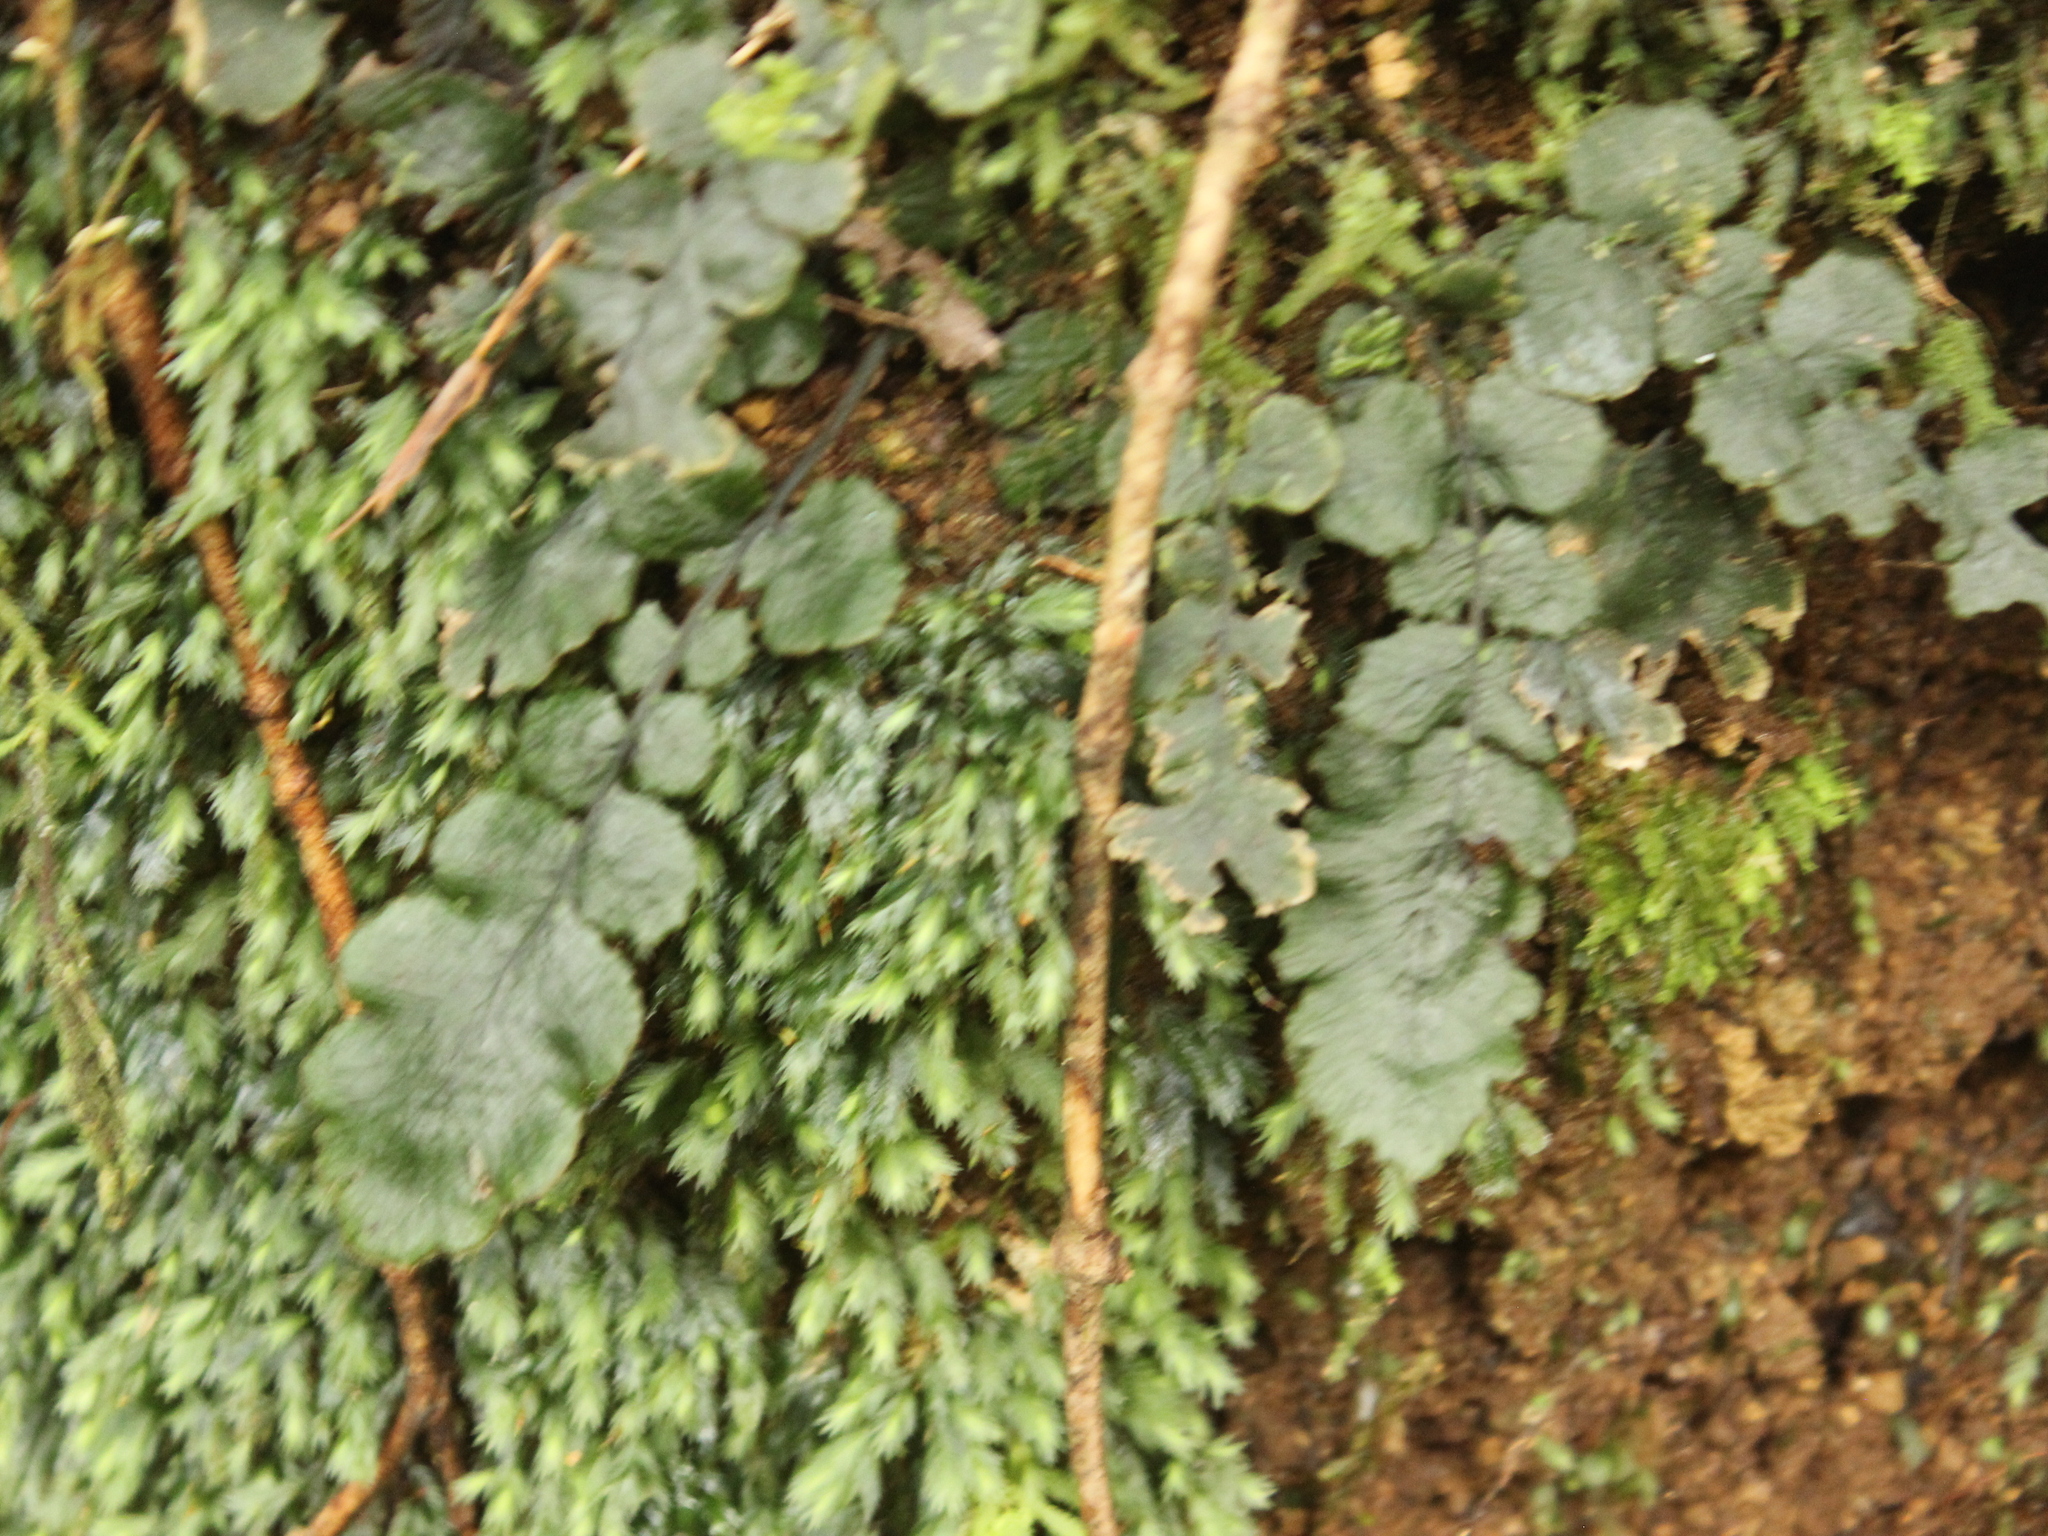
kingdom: Plantae
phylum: Tracheophyta
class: Polypodiopsida
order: Polypodiales
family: Blechnaceae
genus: Cranfillia
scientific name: Cranfillia nigra
